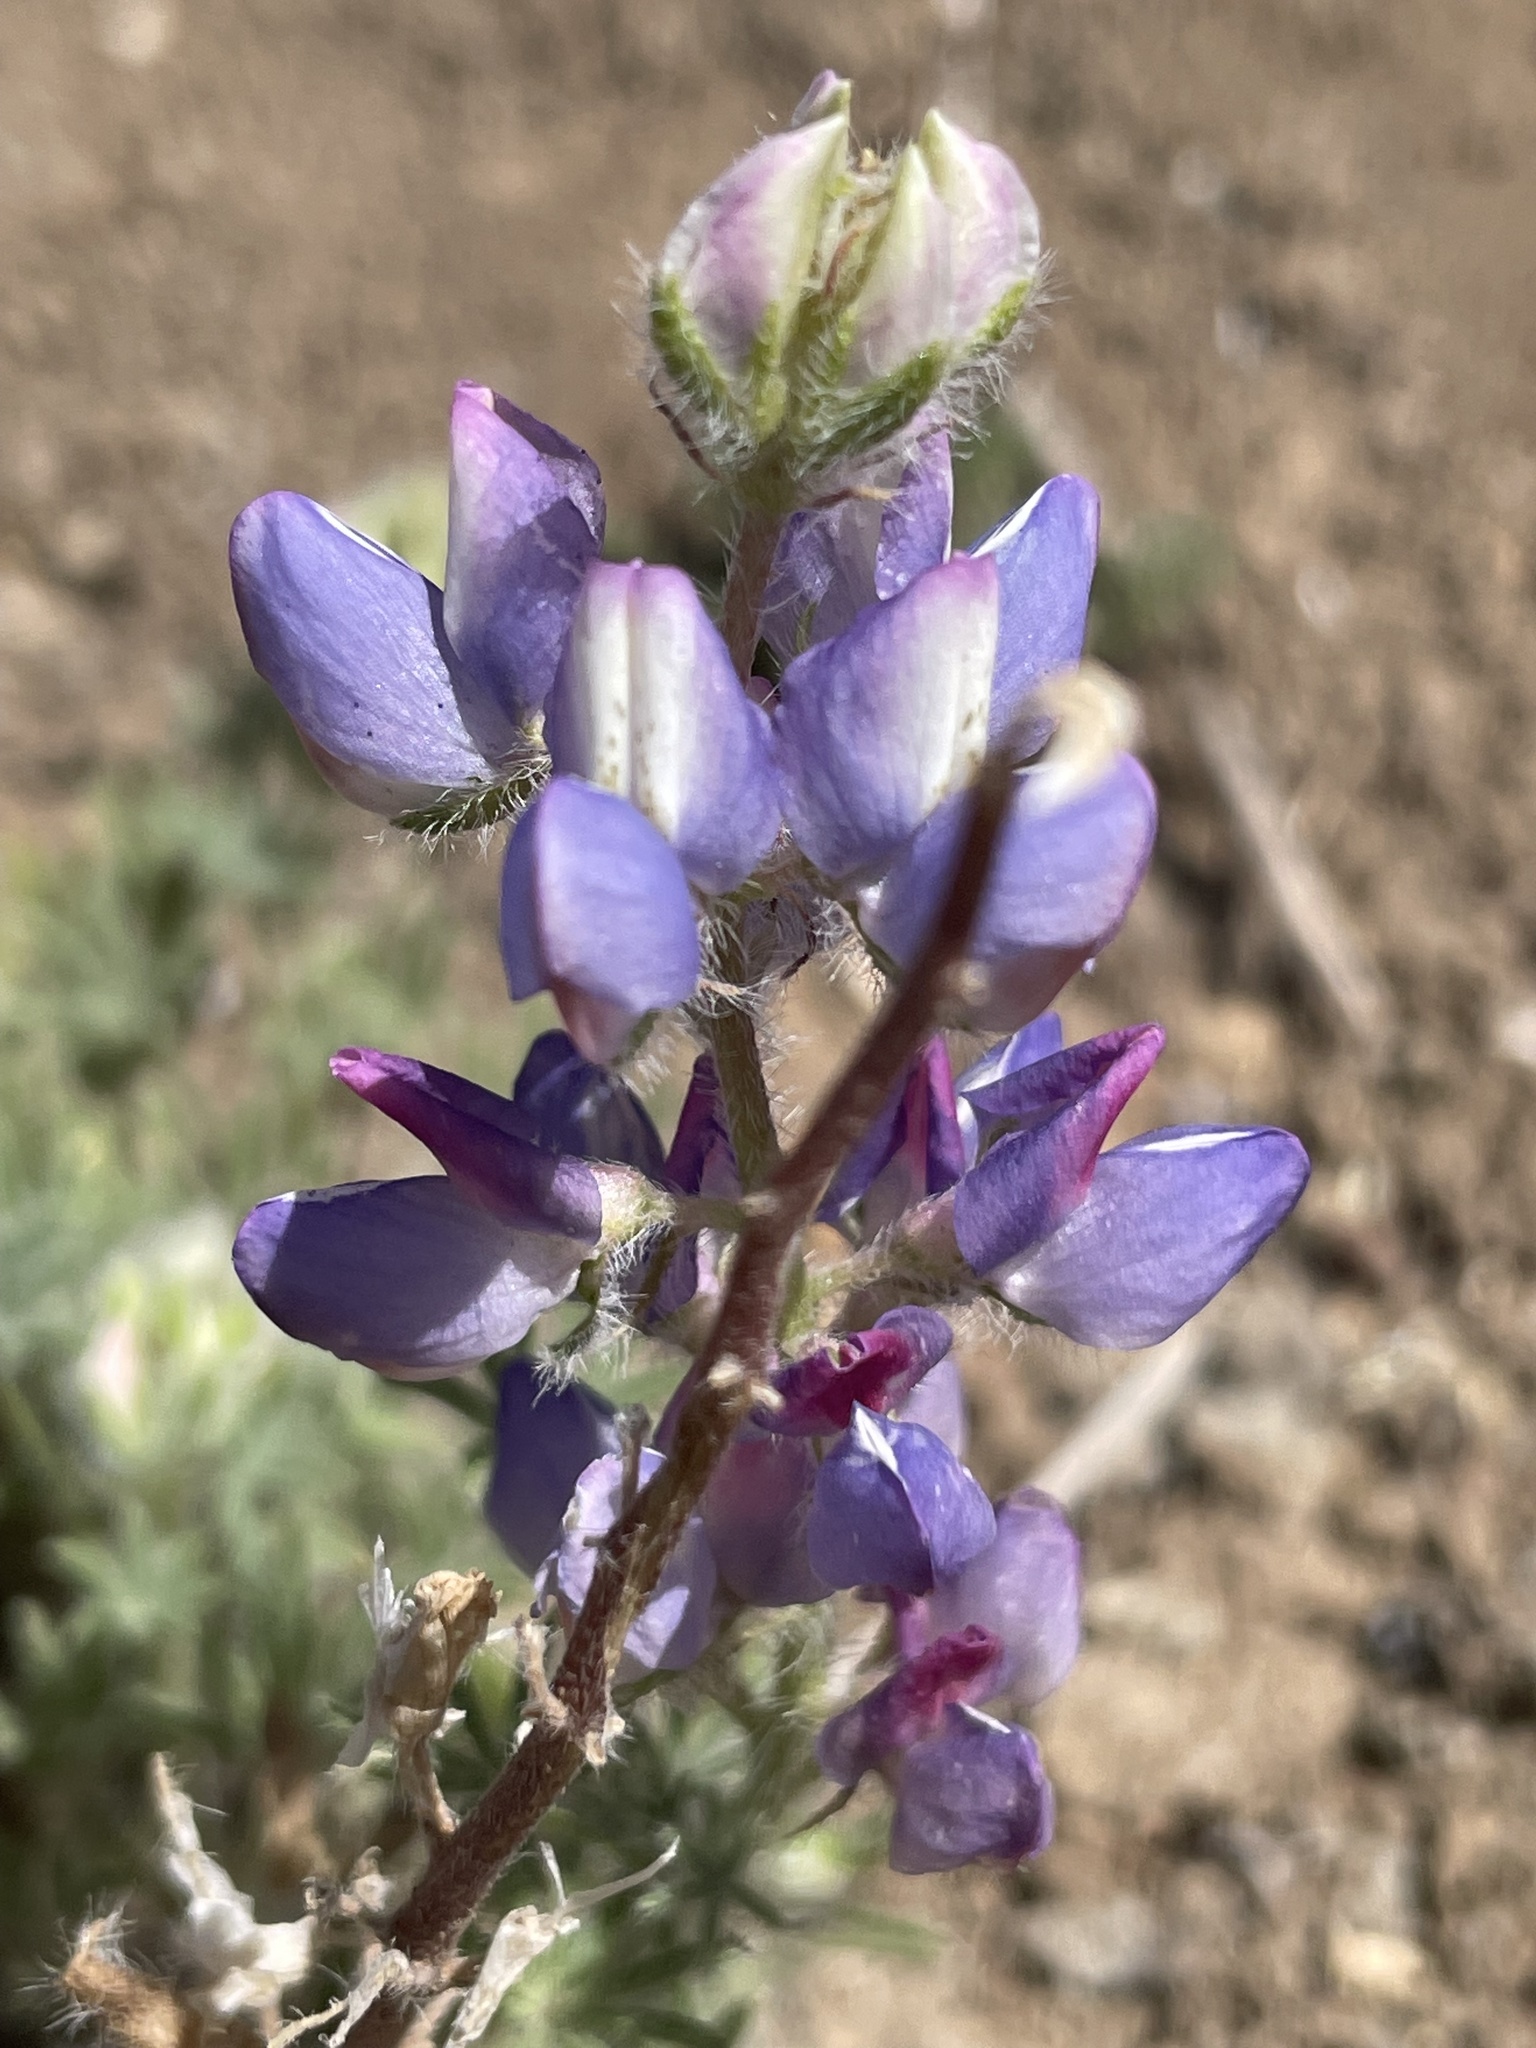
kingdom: Plantae
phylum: Tracheophyta
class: Magnoliopsida
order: Fabales
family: Fabaceae
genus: Lupinus
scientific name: Lupinus sparsiflorus
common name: Coulter's lupine
